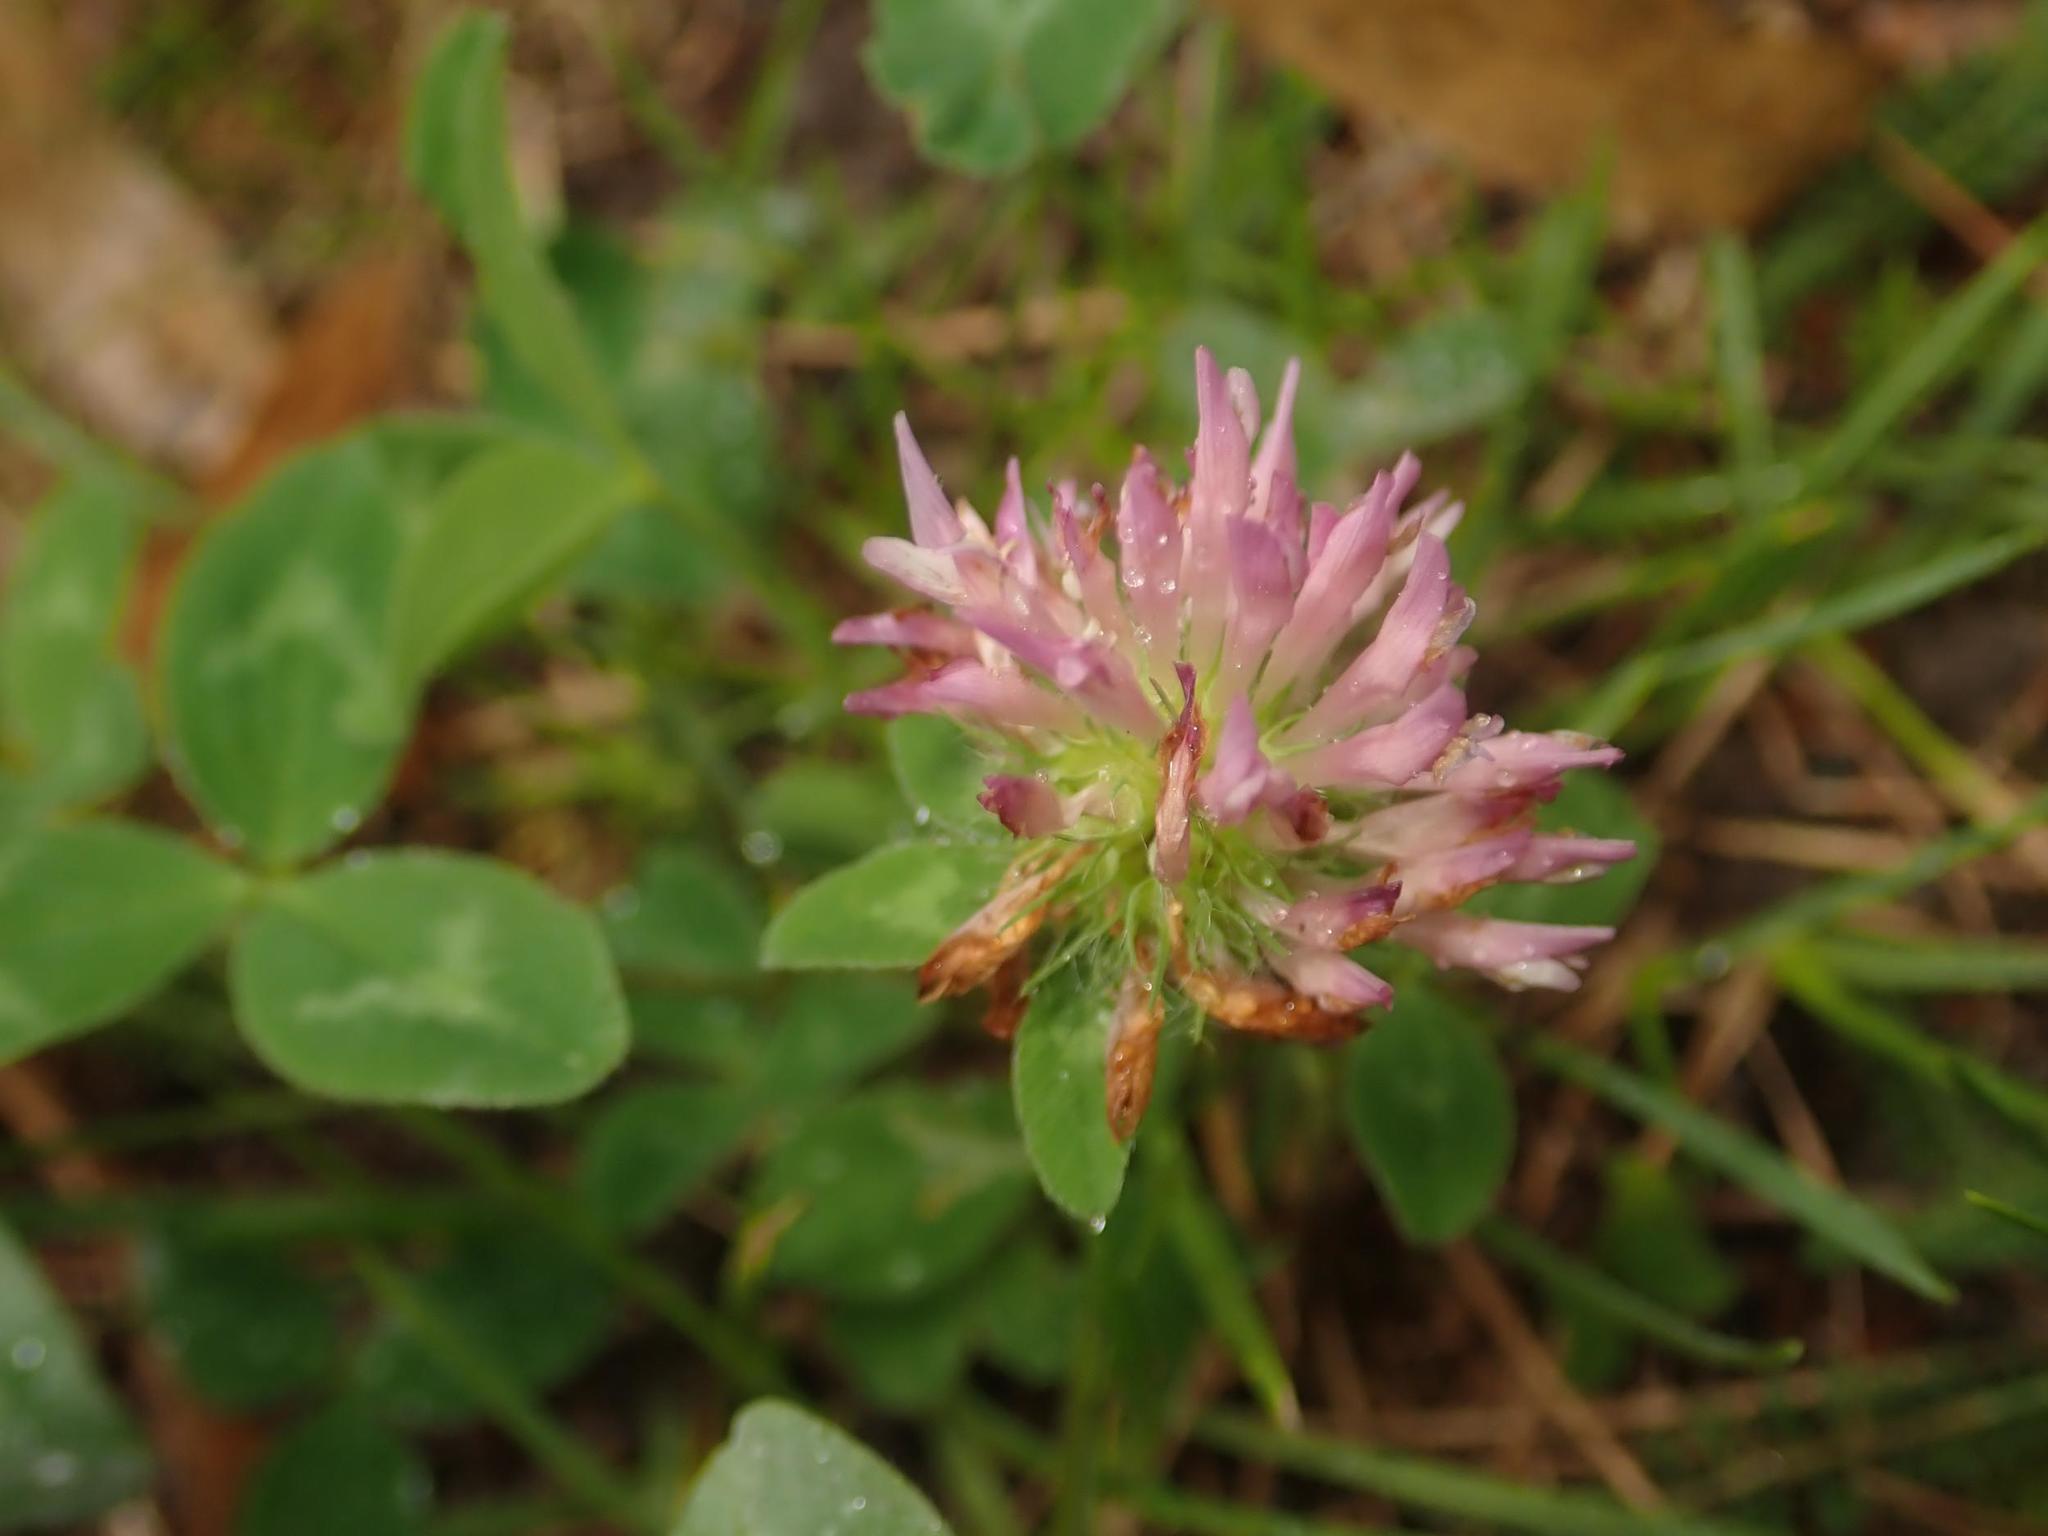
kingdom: Plantae
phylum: Tracheophyta
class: Magnoliopsida
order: Fabales
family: Fabaceae
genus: Trifolium
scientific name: Trifolium pratense
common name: Red clover
